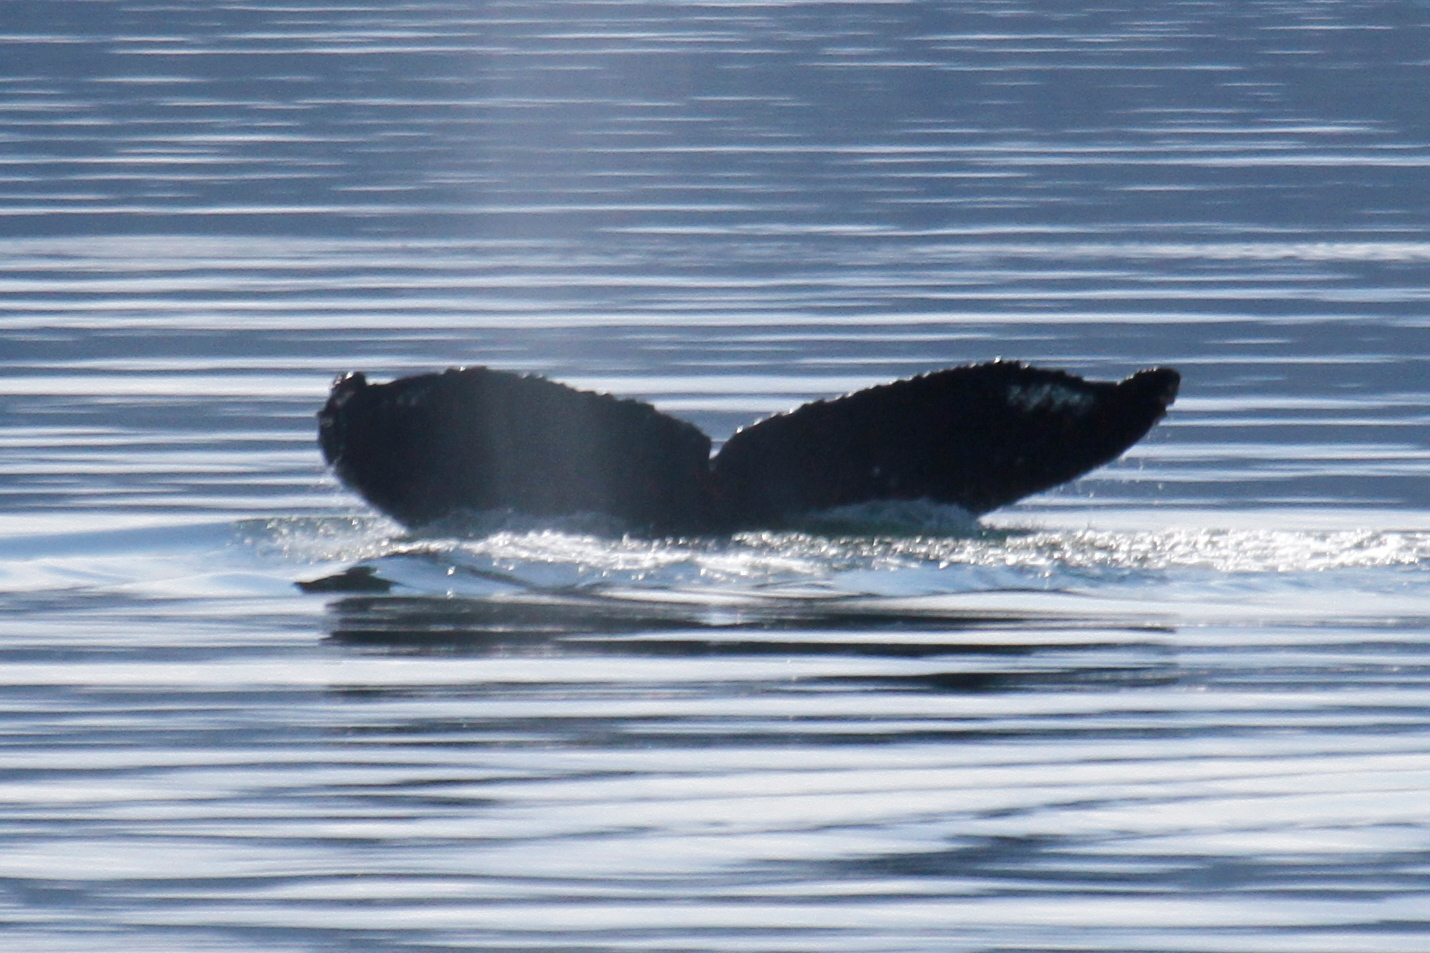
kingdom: Animalia
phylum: Chordata
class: Mammalia
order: Cetacea
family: Balaenopteridae
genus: Megaptera
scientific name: Megaptera novaeangliae
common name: Humpback whale
